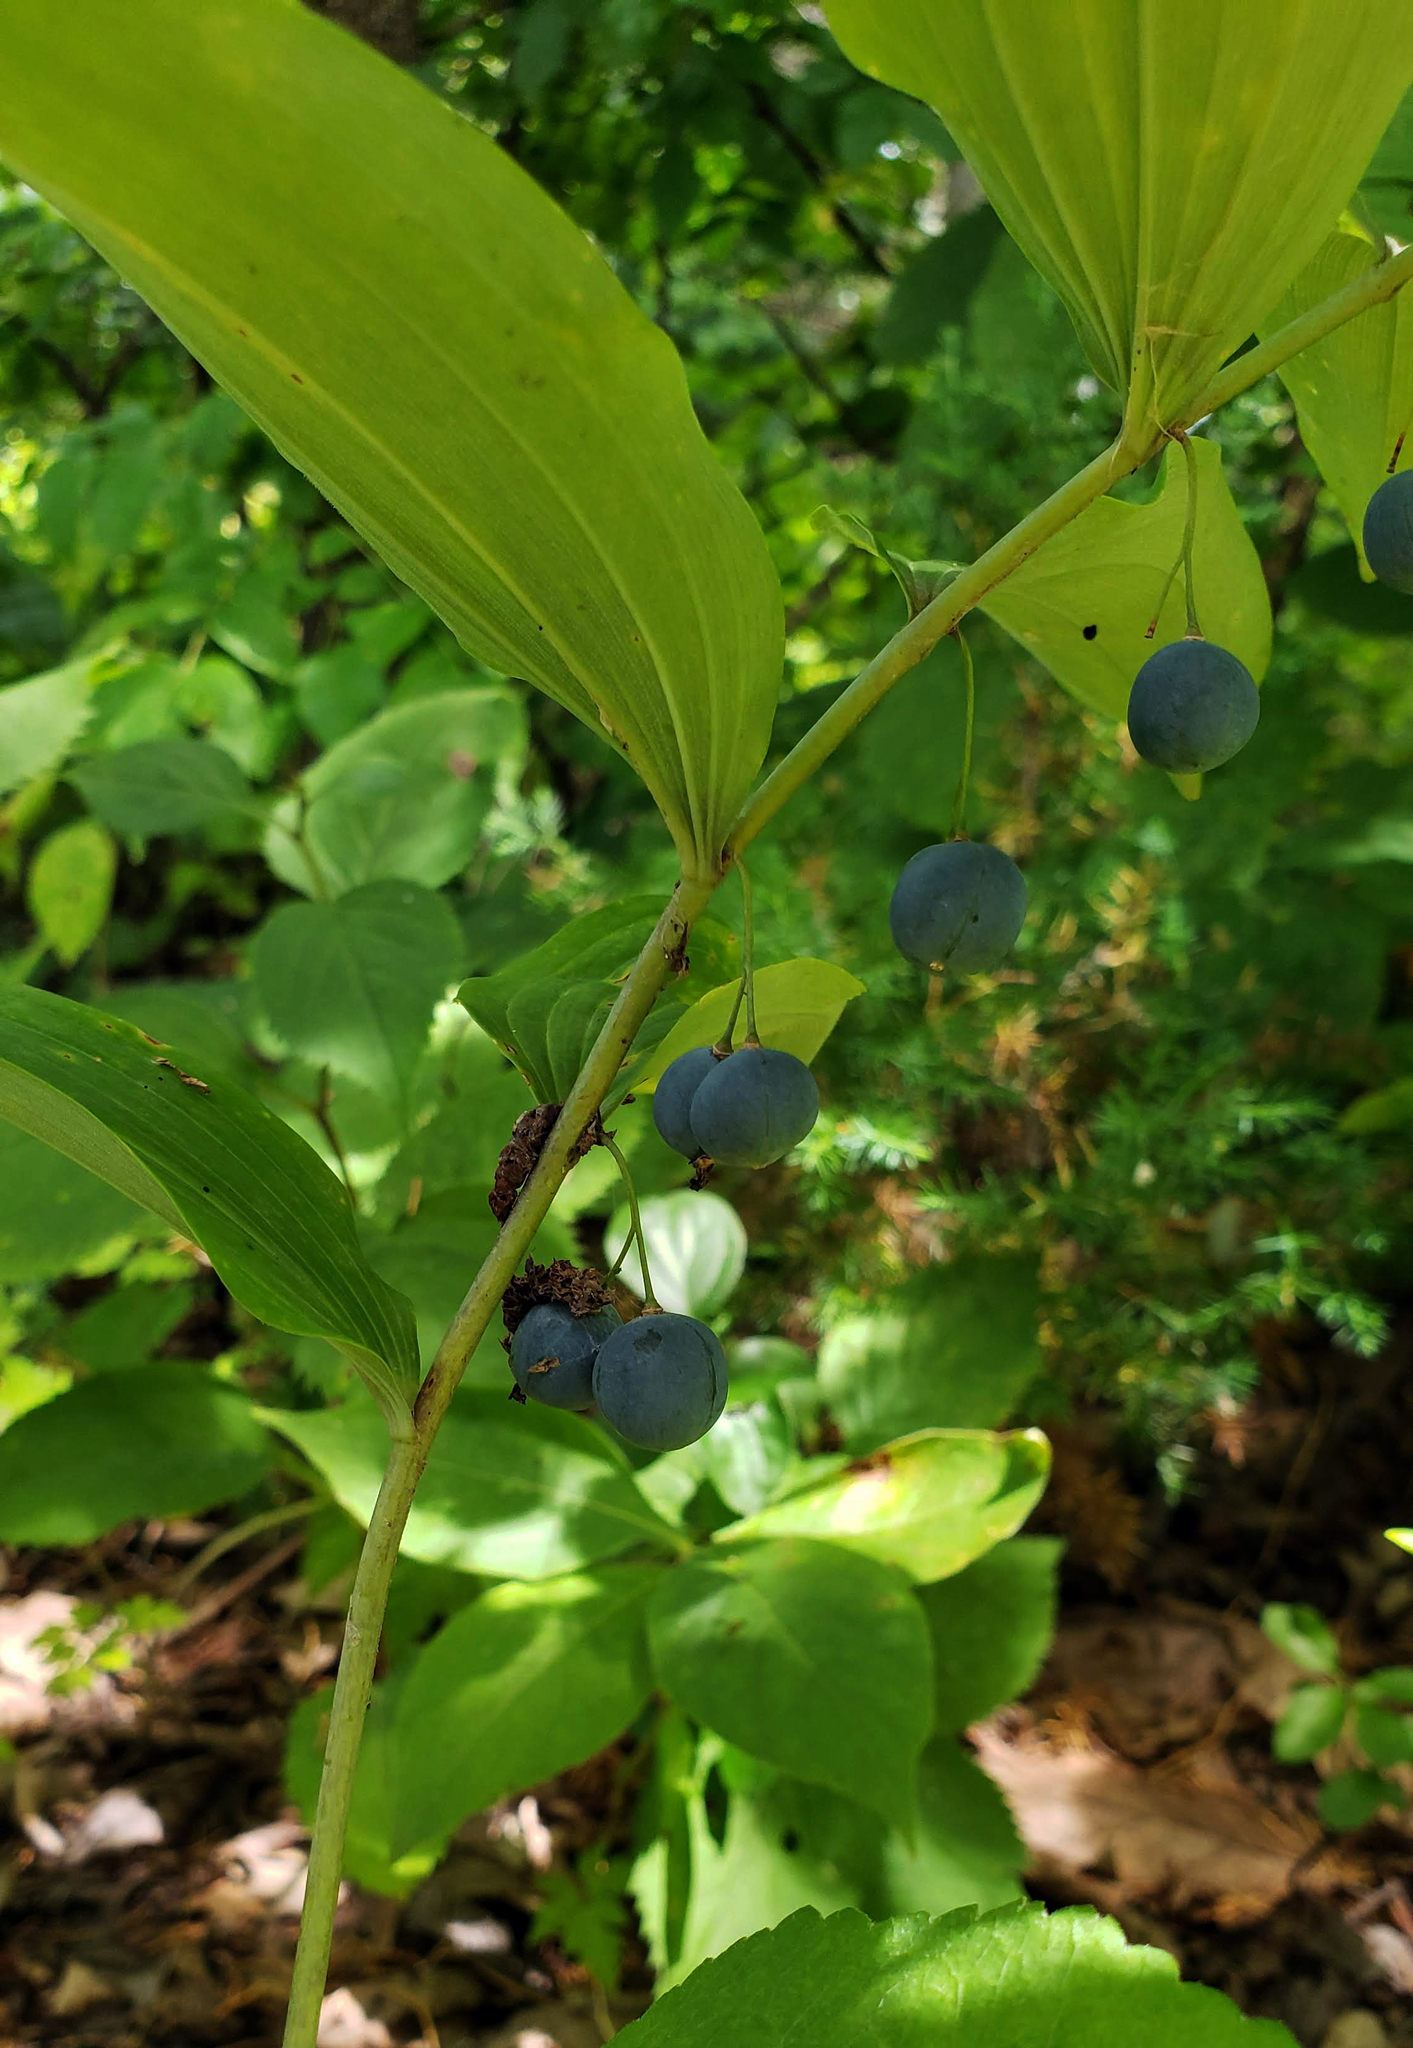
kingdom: Plantae
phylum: Tracheophyta
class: Liliopsida
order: Asparagales
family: Asparagaceae
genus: Polygonatum
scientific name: Polygonatum pubescens
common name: Downy solomon's seal
